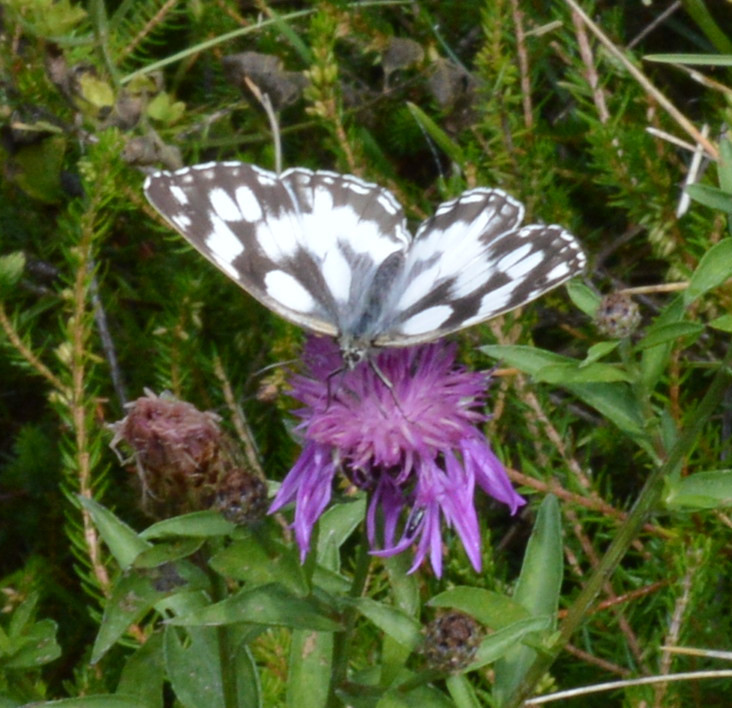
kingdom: Animalia
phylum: Arthropoda
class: Insecta
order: Lepidoptera
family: Nymphalidae
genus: Melanargia
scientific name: Melanargia galathea
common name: Marbled white
